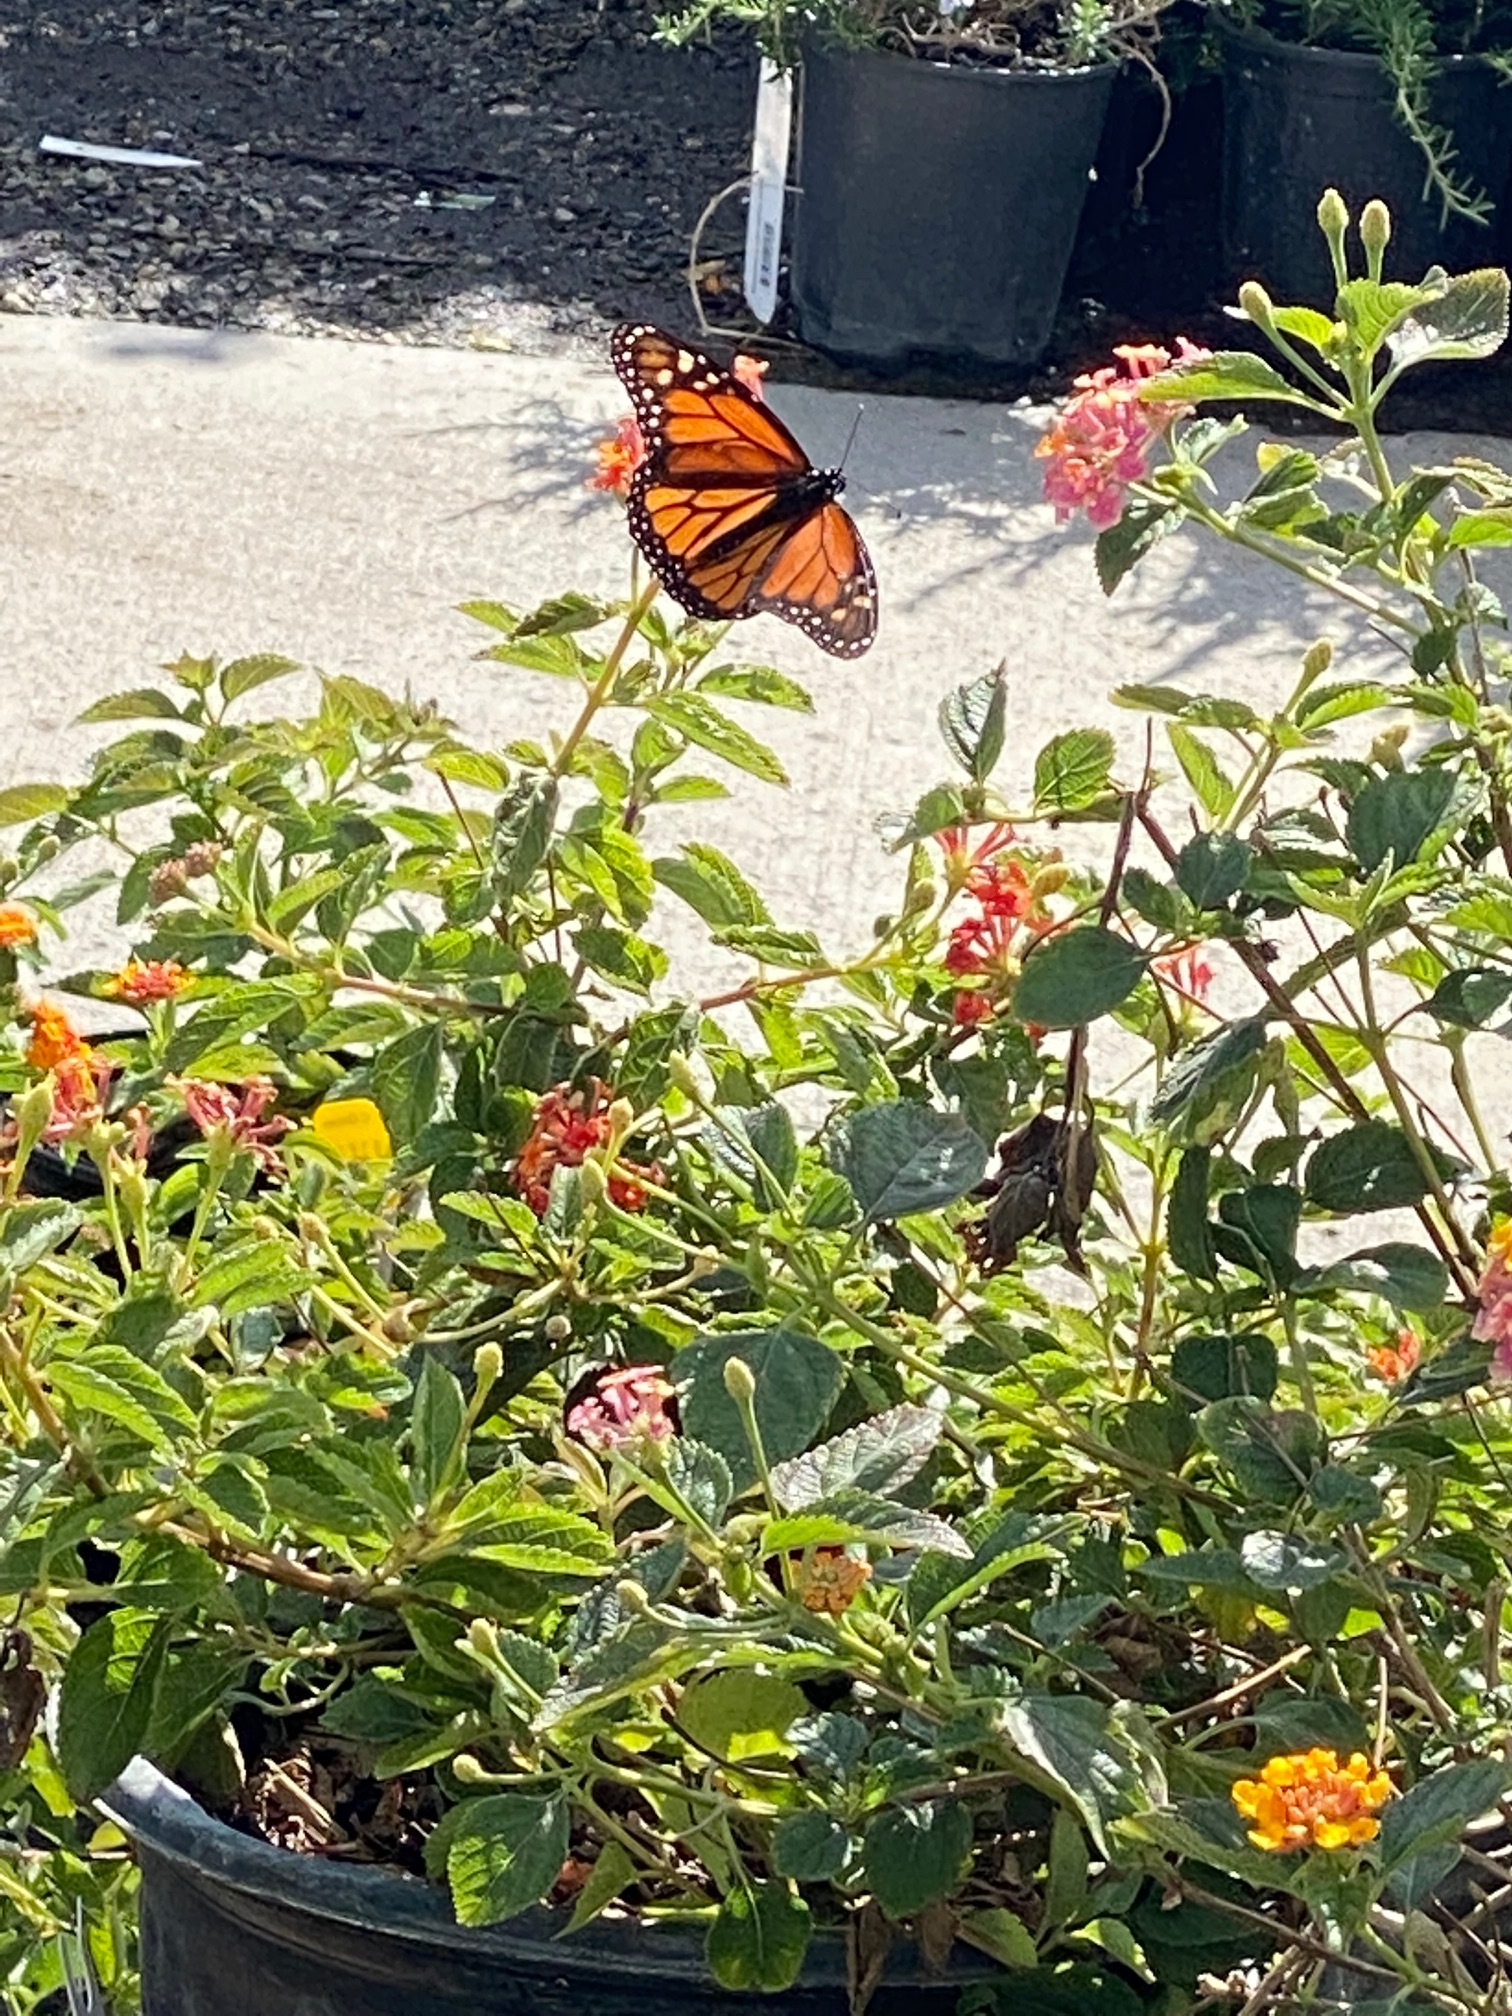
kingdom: Animalia
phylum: Arthropoda
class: Insecta
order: Lepidoptera
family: Nymphalidae
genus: Danaus
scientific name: Danaus plexippus
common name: Monarch
